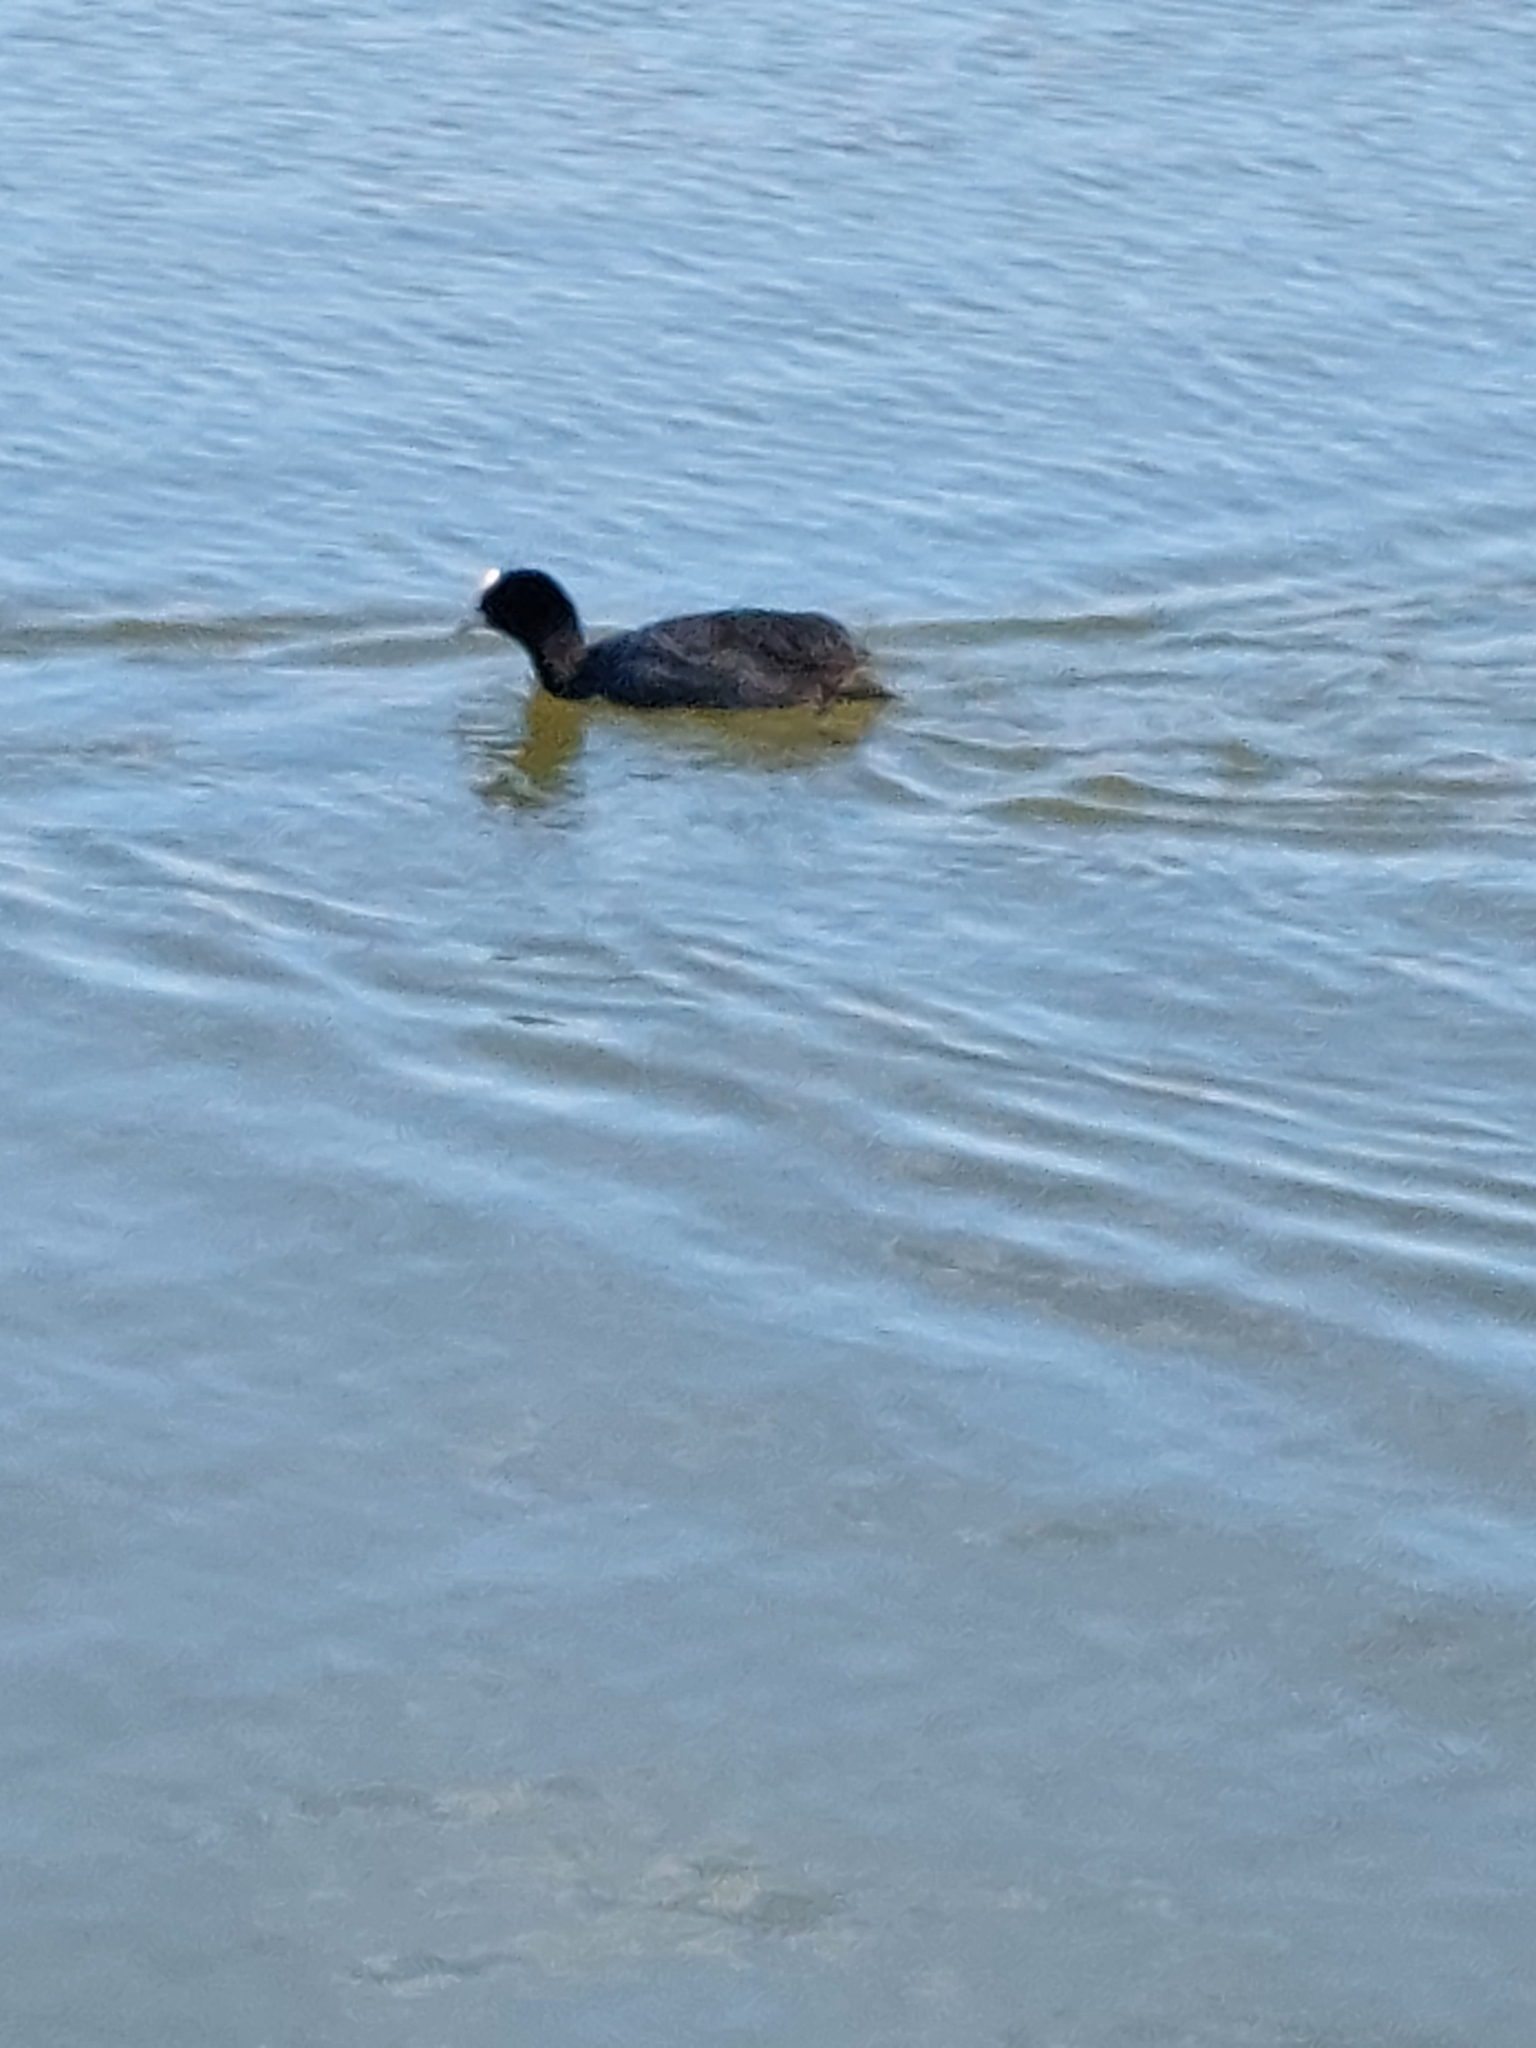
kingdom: Animalia
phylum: Chordata
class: Aves
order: Gruiformes
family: Rallidae
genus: Fulica
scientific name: Fulica atra
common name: Eurasian coot
